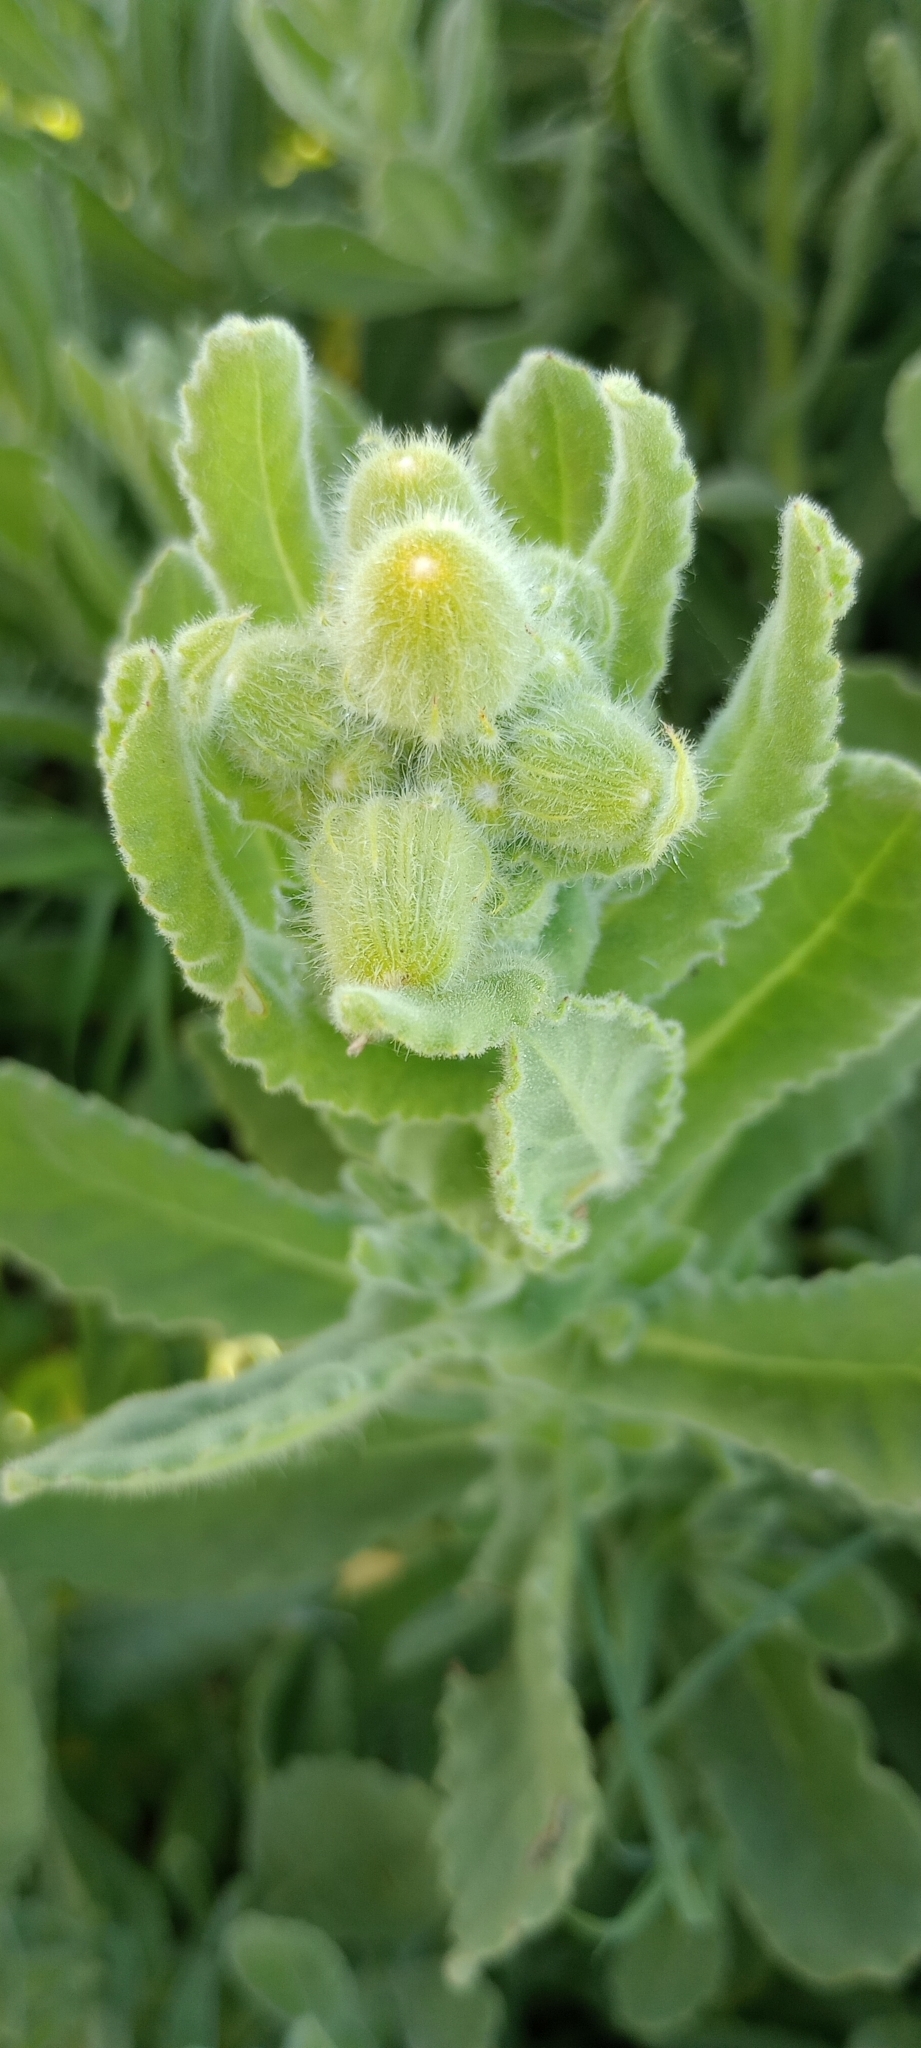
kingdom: Plantae
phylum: Tracheophyta
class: Magnoliopsida
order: Asterales
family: Asteraceae
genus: Senecio
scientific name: Senecio selloi
